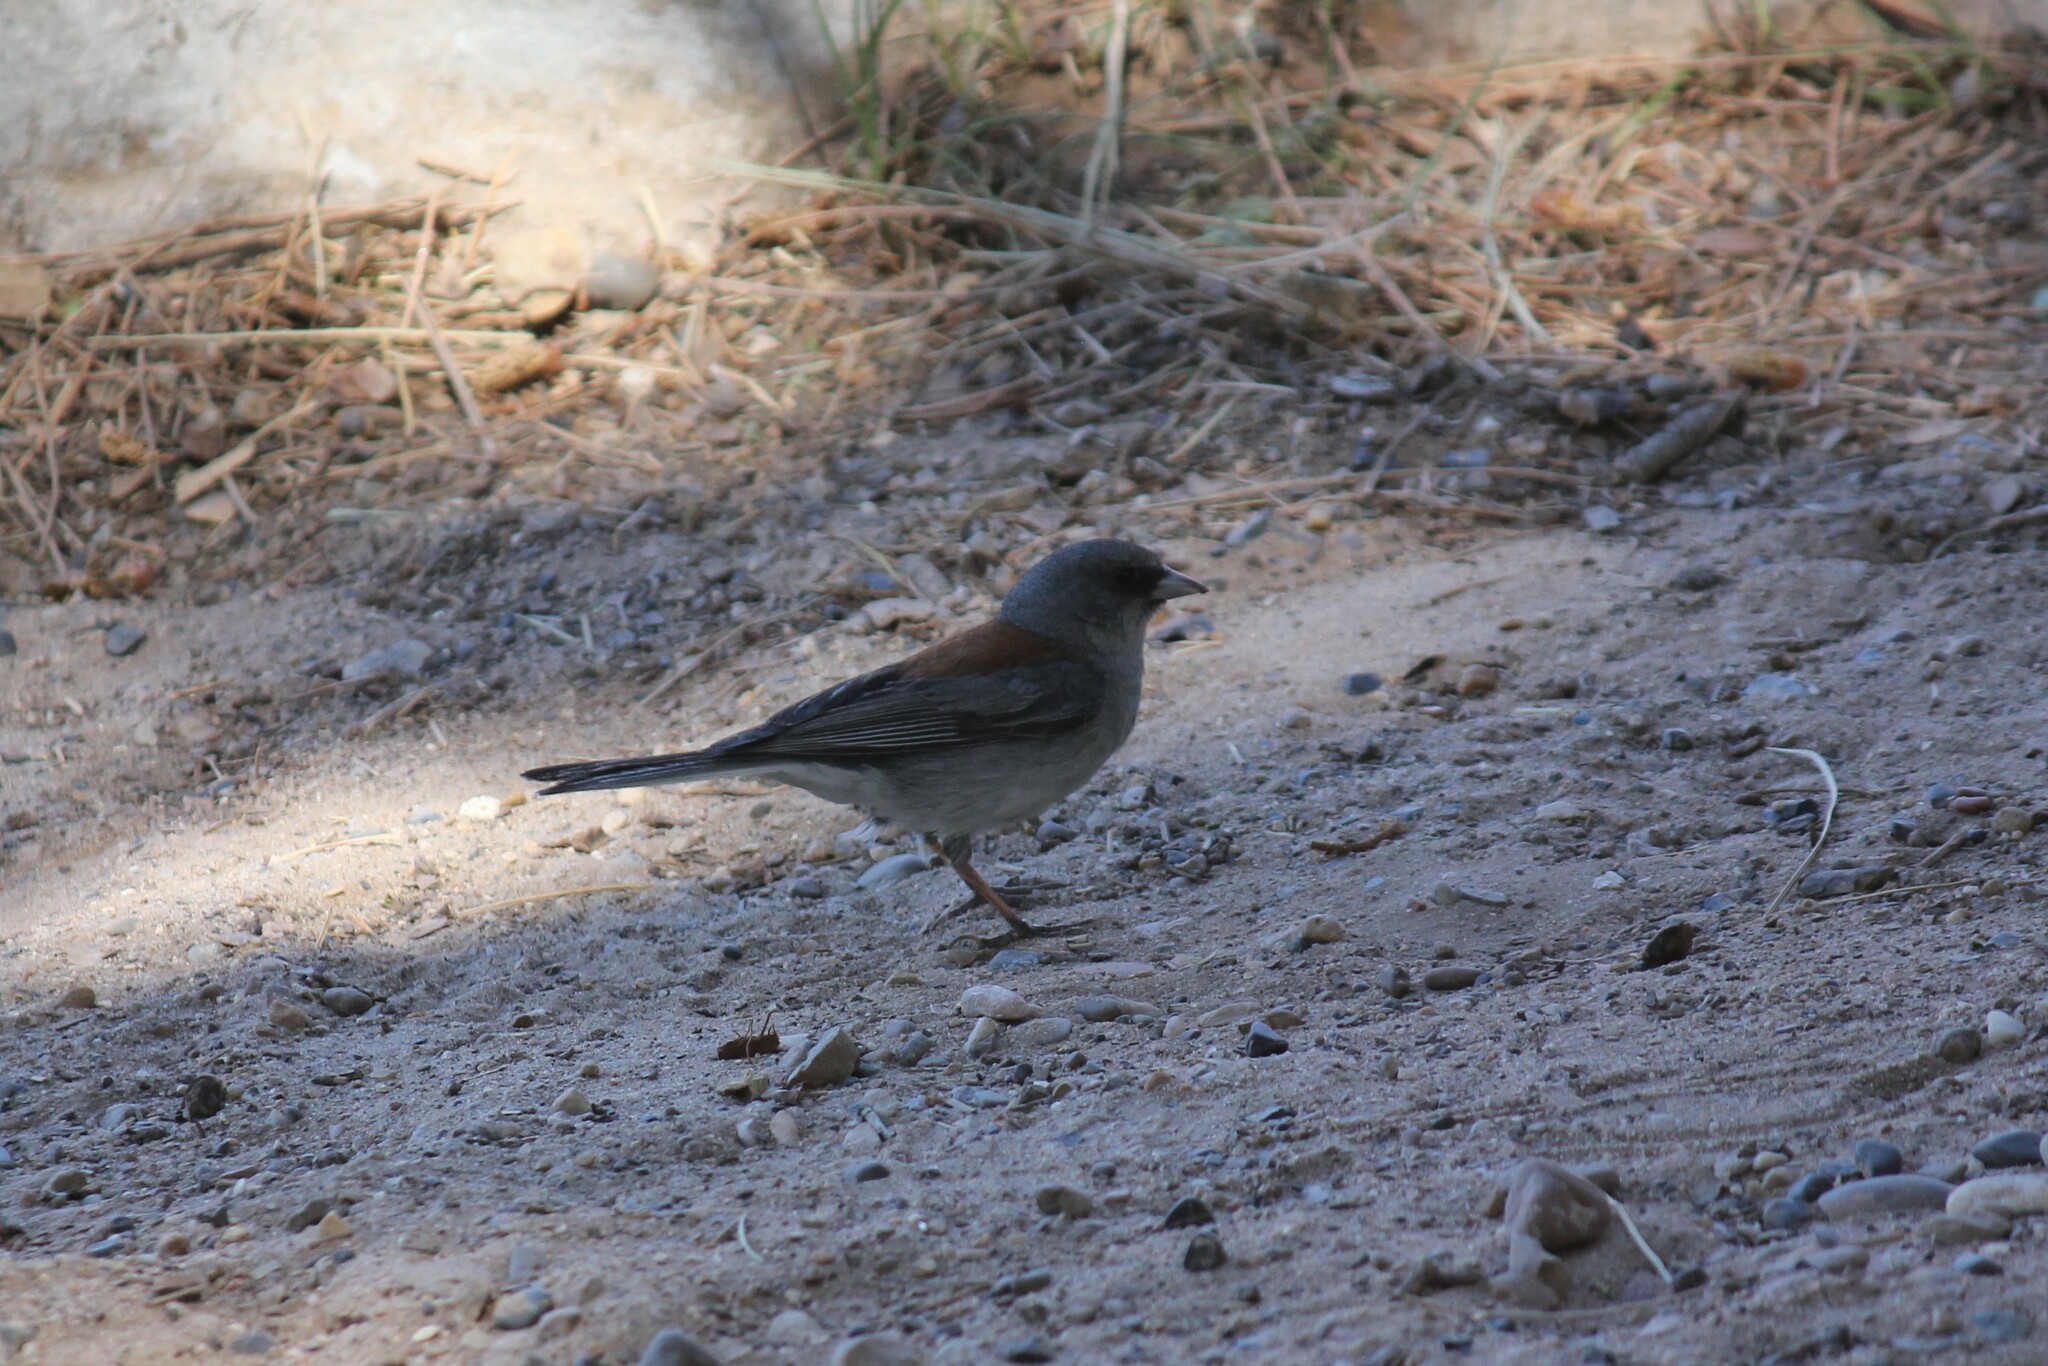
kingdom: Animalia
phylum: Chordata
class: Aves
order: Passeriformes
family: Passerellidae
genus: Junco
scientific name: Junco hyemalis
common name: Dark-eyed junco
